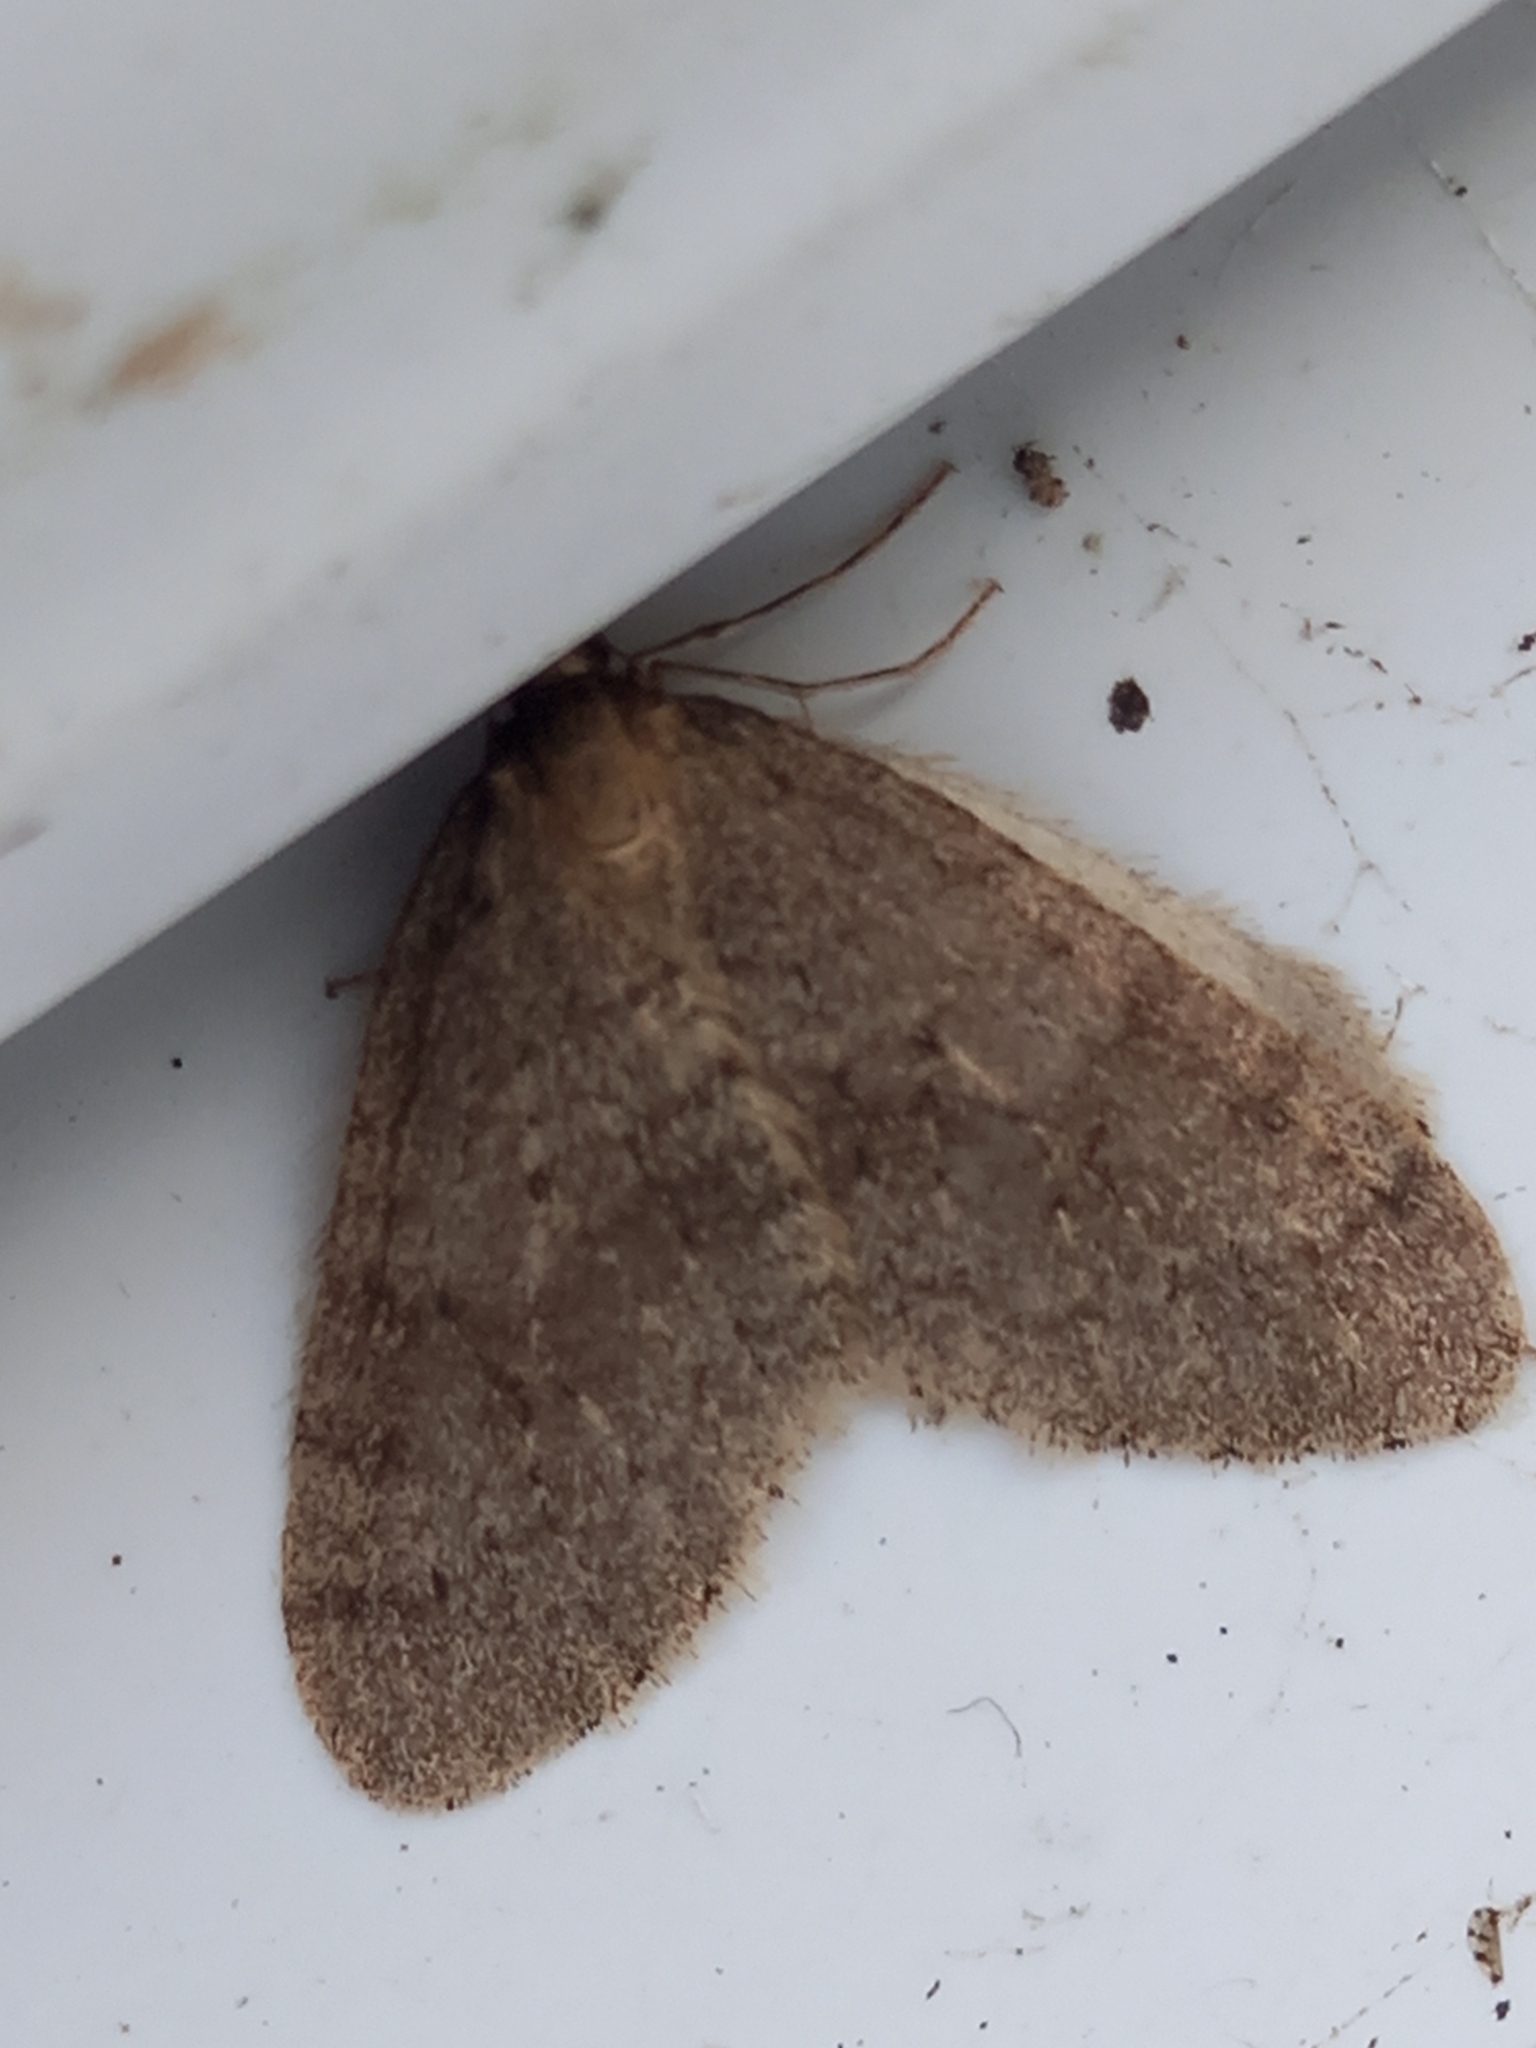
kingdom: Animalia
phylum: Arthropoda
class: Insecta
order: Lepidoptera
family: Geometridae
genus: Operophtera
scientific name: Operophtera brumata
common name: Winter moth
